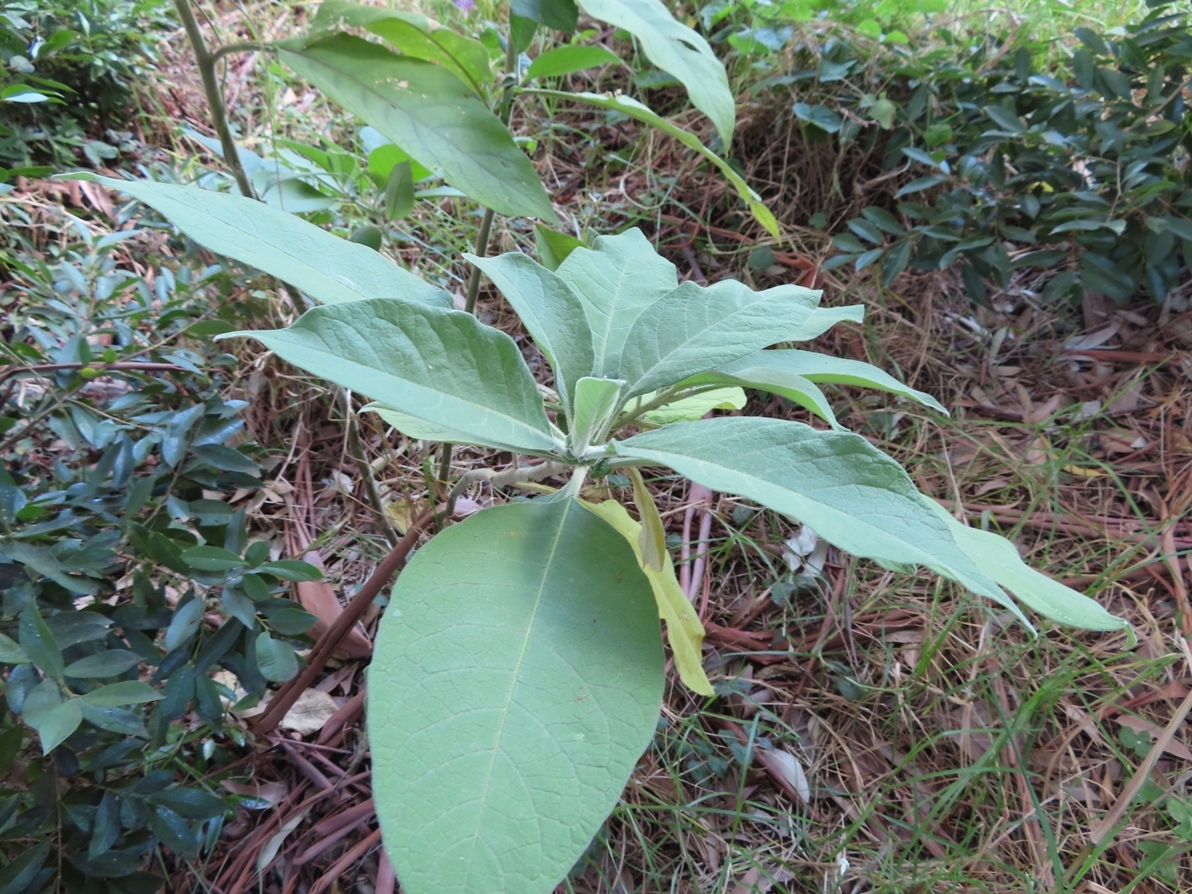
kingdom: Plantae
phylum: Tracheophyta
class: Magnoliopsida
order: Solanales
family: Solanaceae
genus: Solanum
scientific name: Solanum mauritianum
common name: Earleaf nightshade
